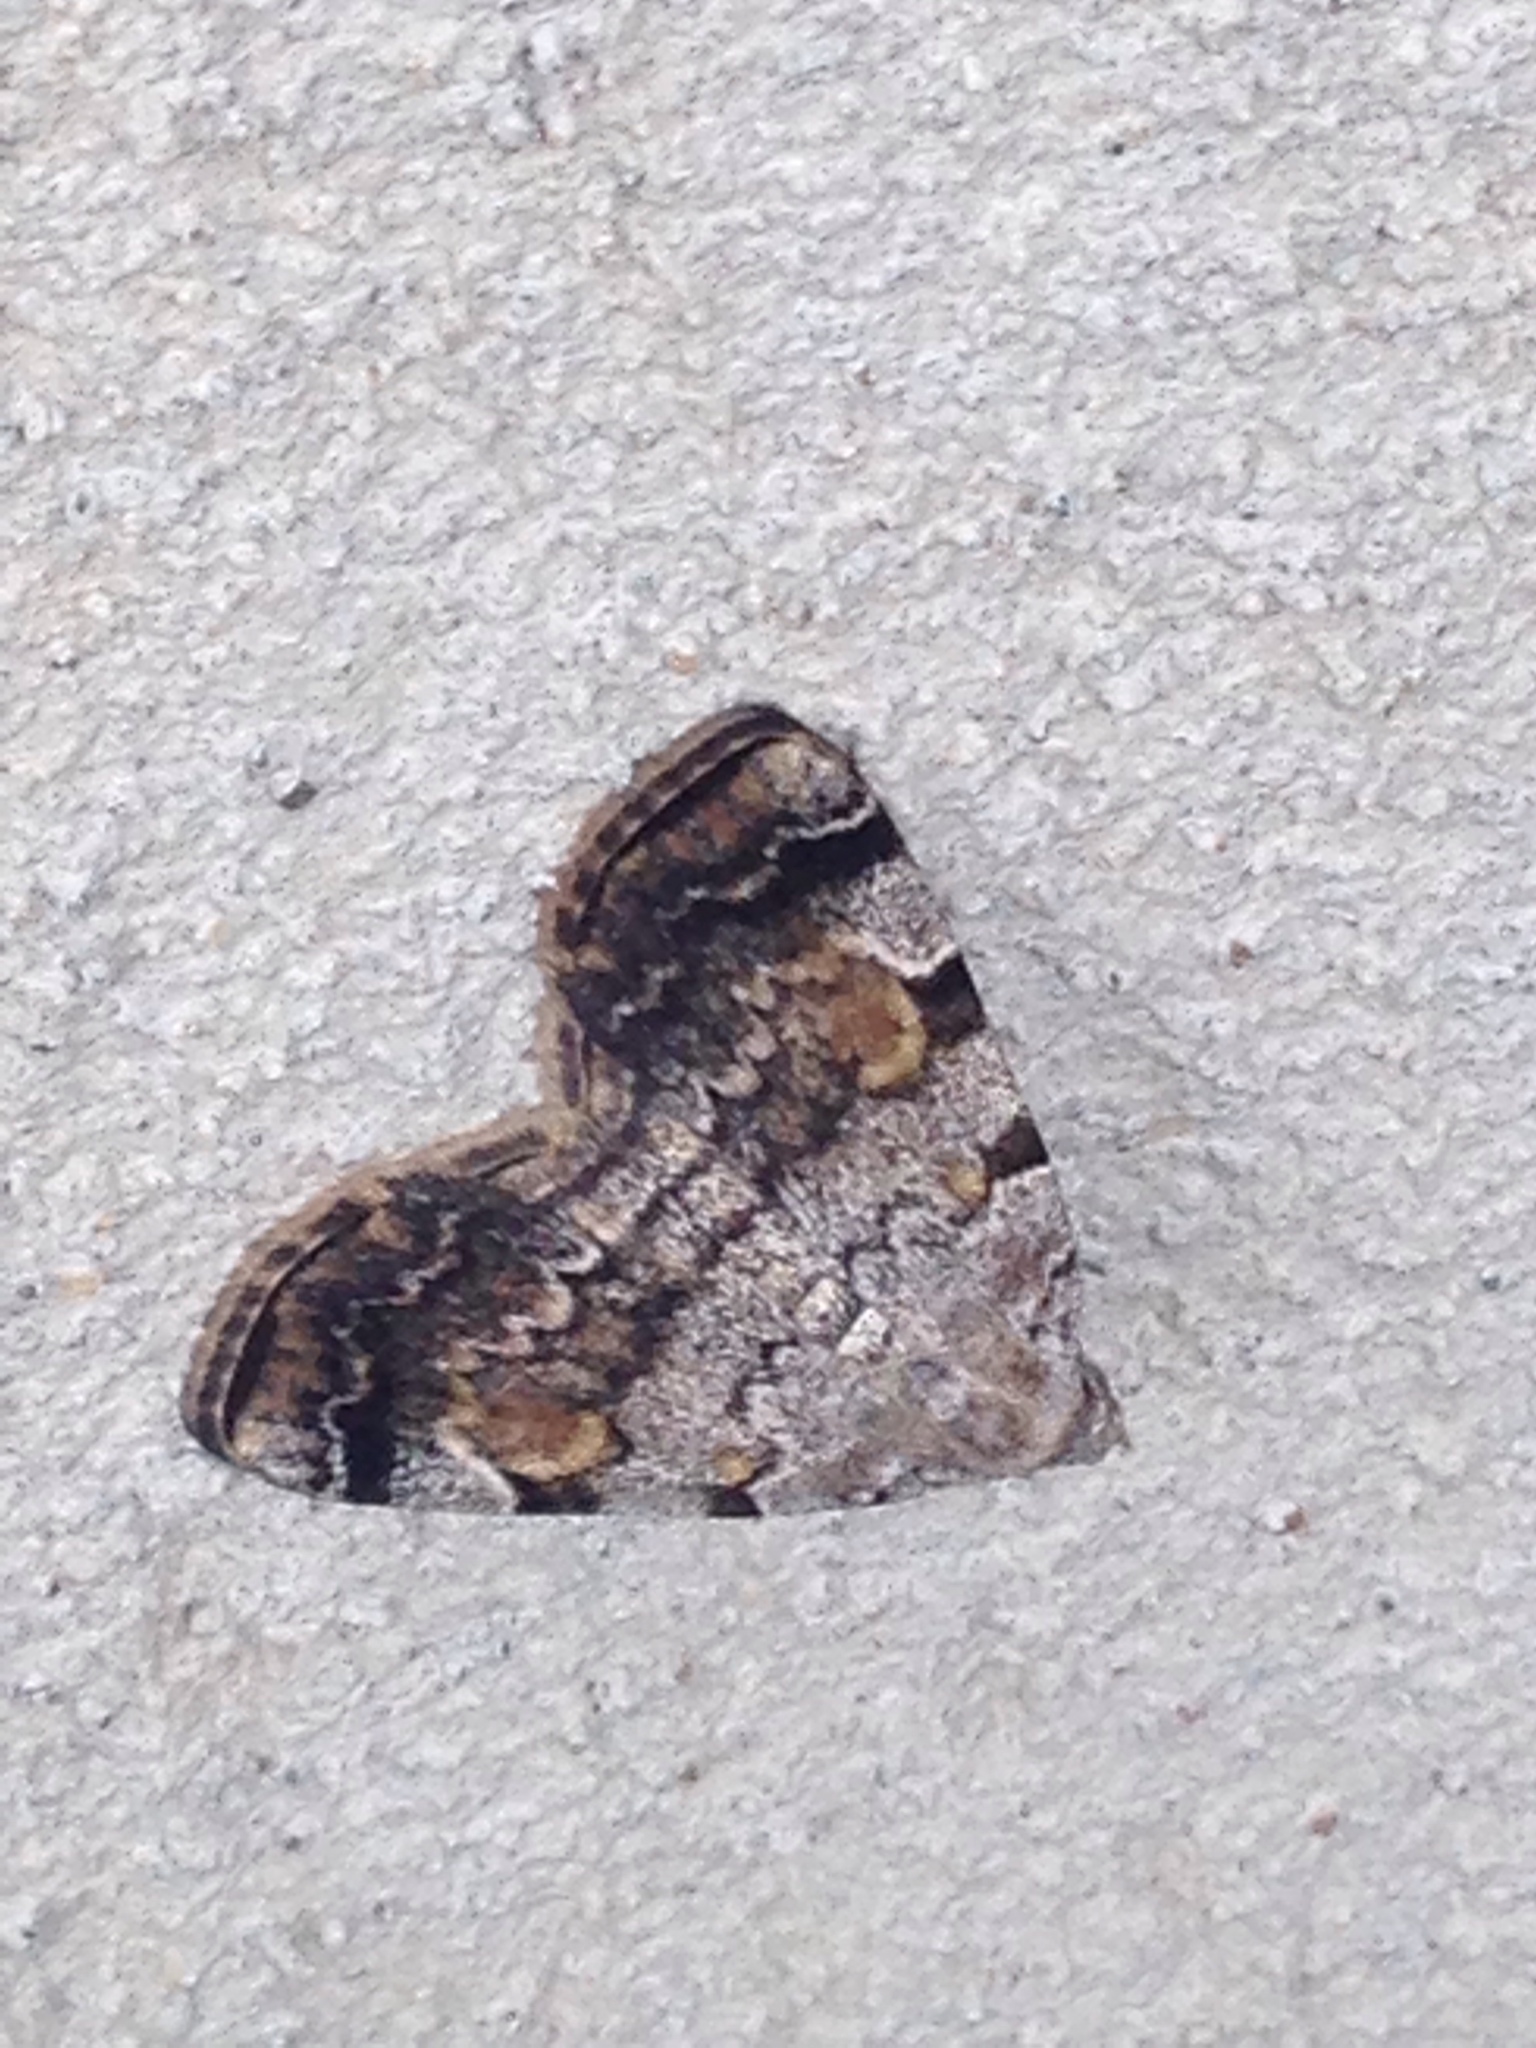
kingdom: Animalia
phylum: Arthropoda
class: Insecta
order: Lepidoptera
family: Erebidae
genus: Idia
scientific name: Idia americalis
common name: American idia moth
